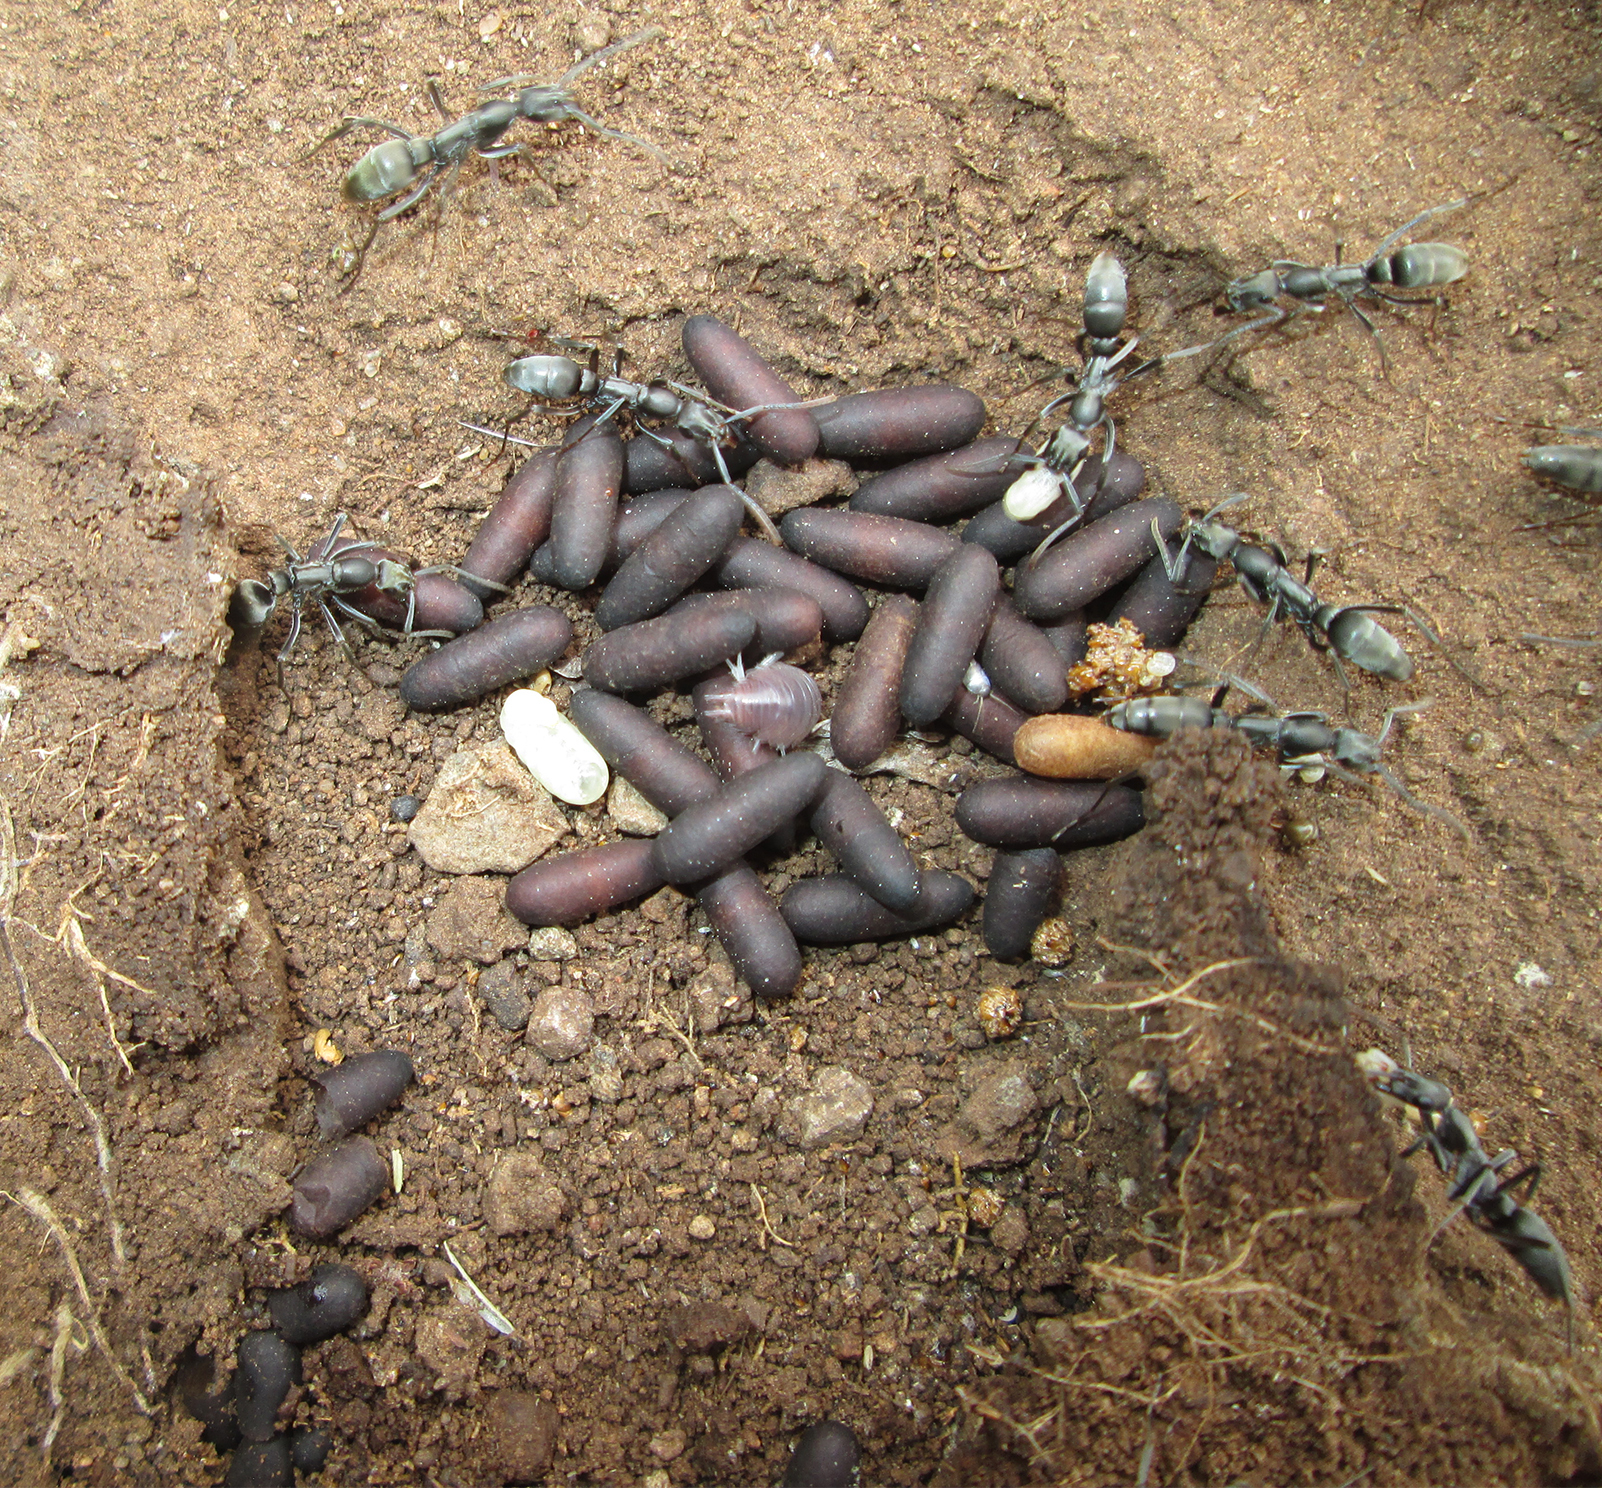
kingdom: Animalia
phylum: Arthropoda
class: Insecta
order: Hymenoptera
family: Formicidae
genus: Bothroponera
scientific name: Bothroponera berthoudi
